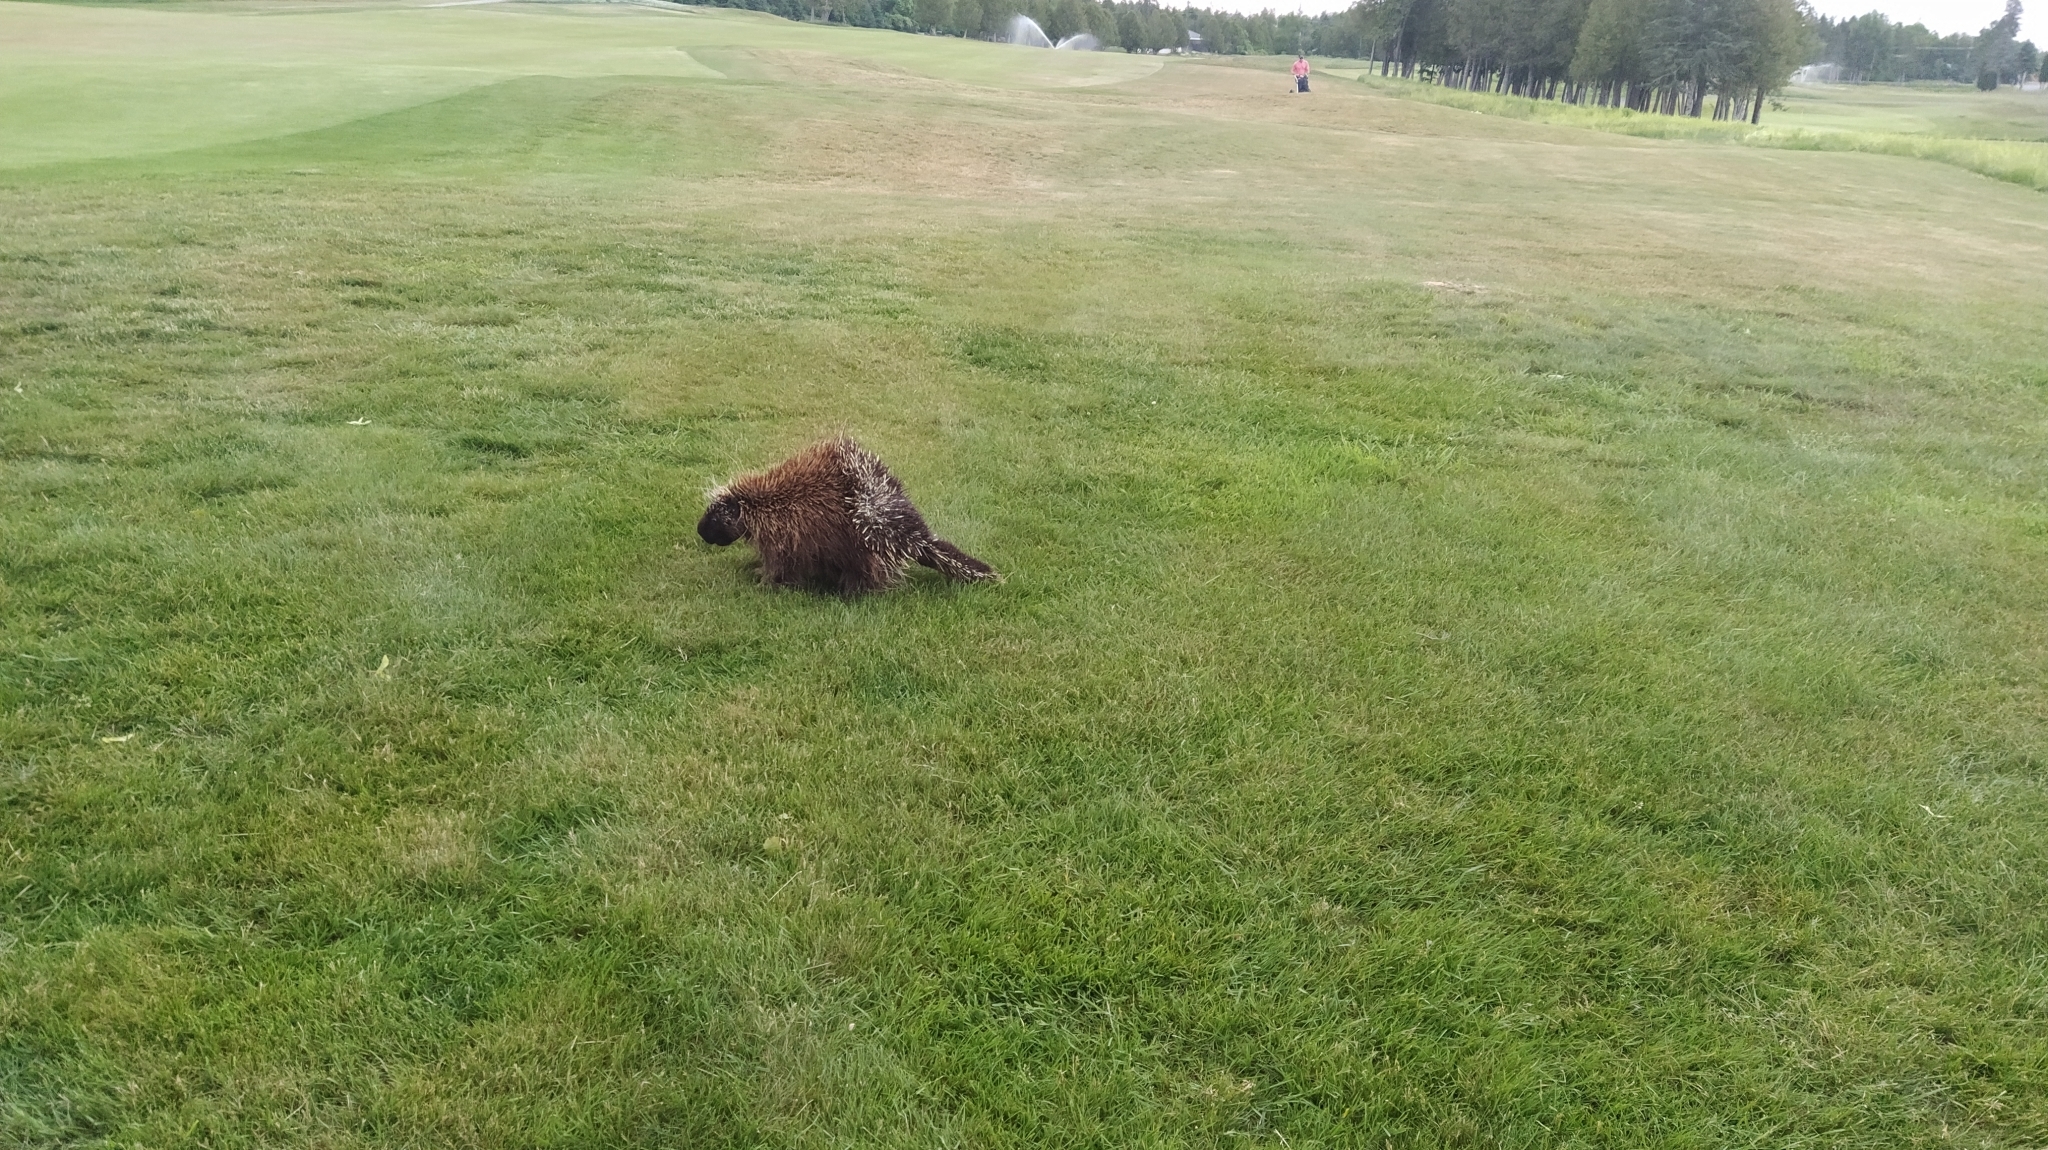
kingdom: Animalia
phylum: Chordata
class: Mammalia
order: Rodentia
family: Erethizontidae
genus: Erethizon
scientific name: Erethizon dorsatus
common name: North american porcupine
